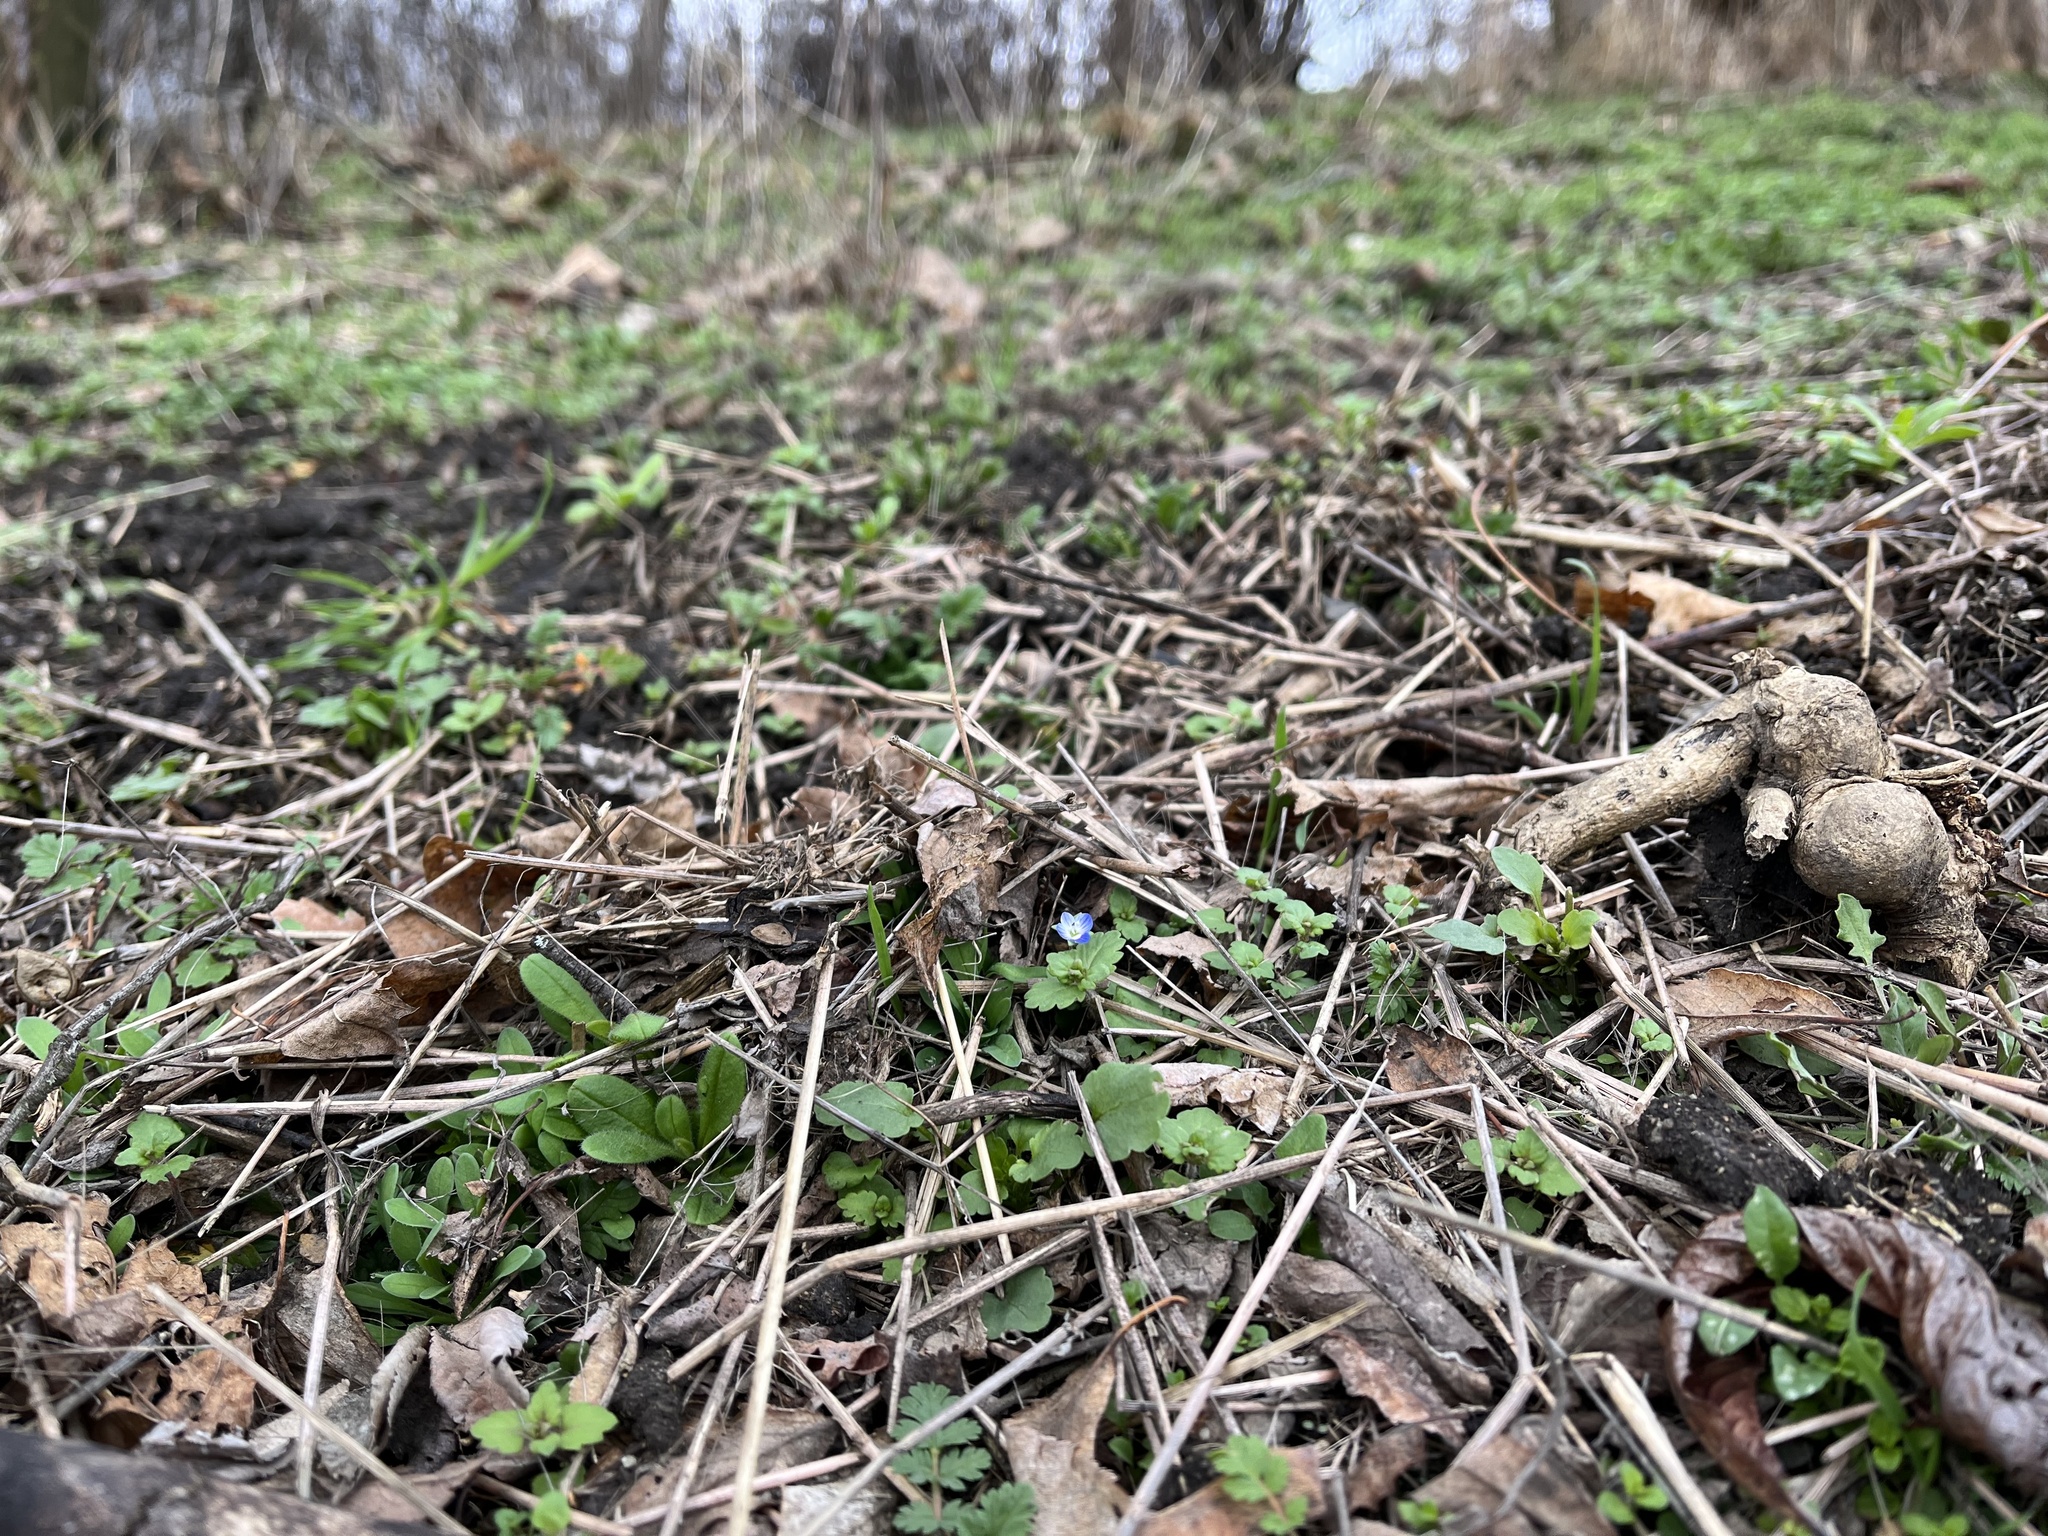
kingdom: Plantae
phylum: Tracheophyta
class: Magnoliopsida
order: Lamiales
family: Plantaginaceae
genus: Veronica
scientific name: Veronica polita
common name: Grey field-speedwell
